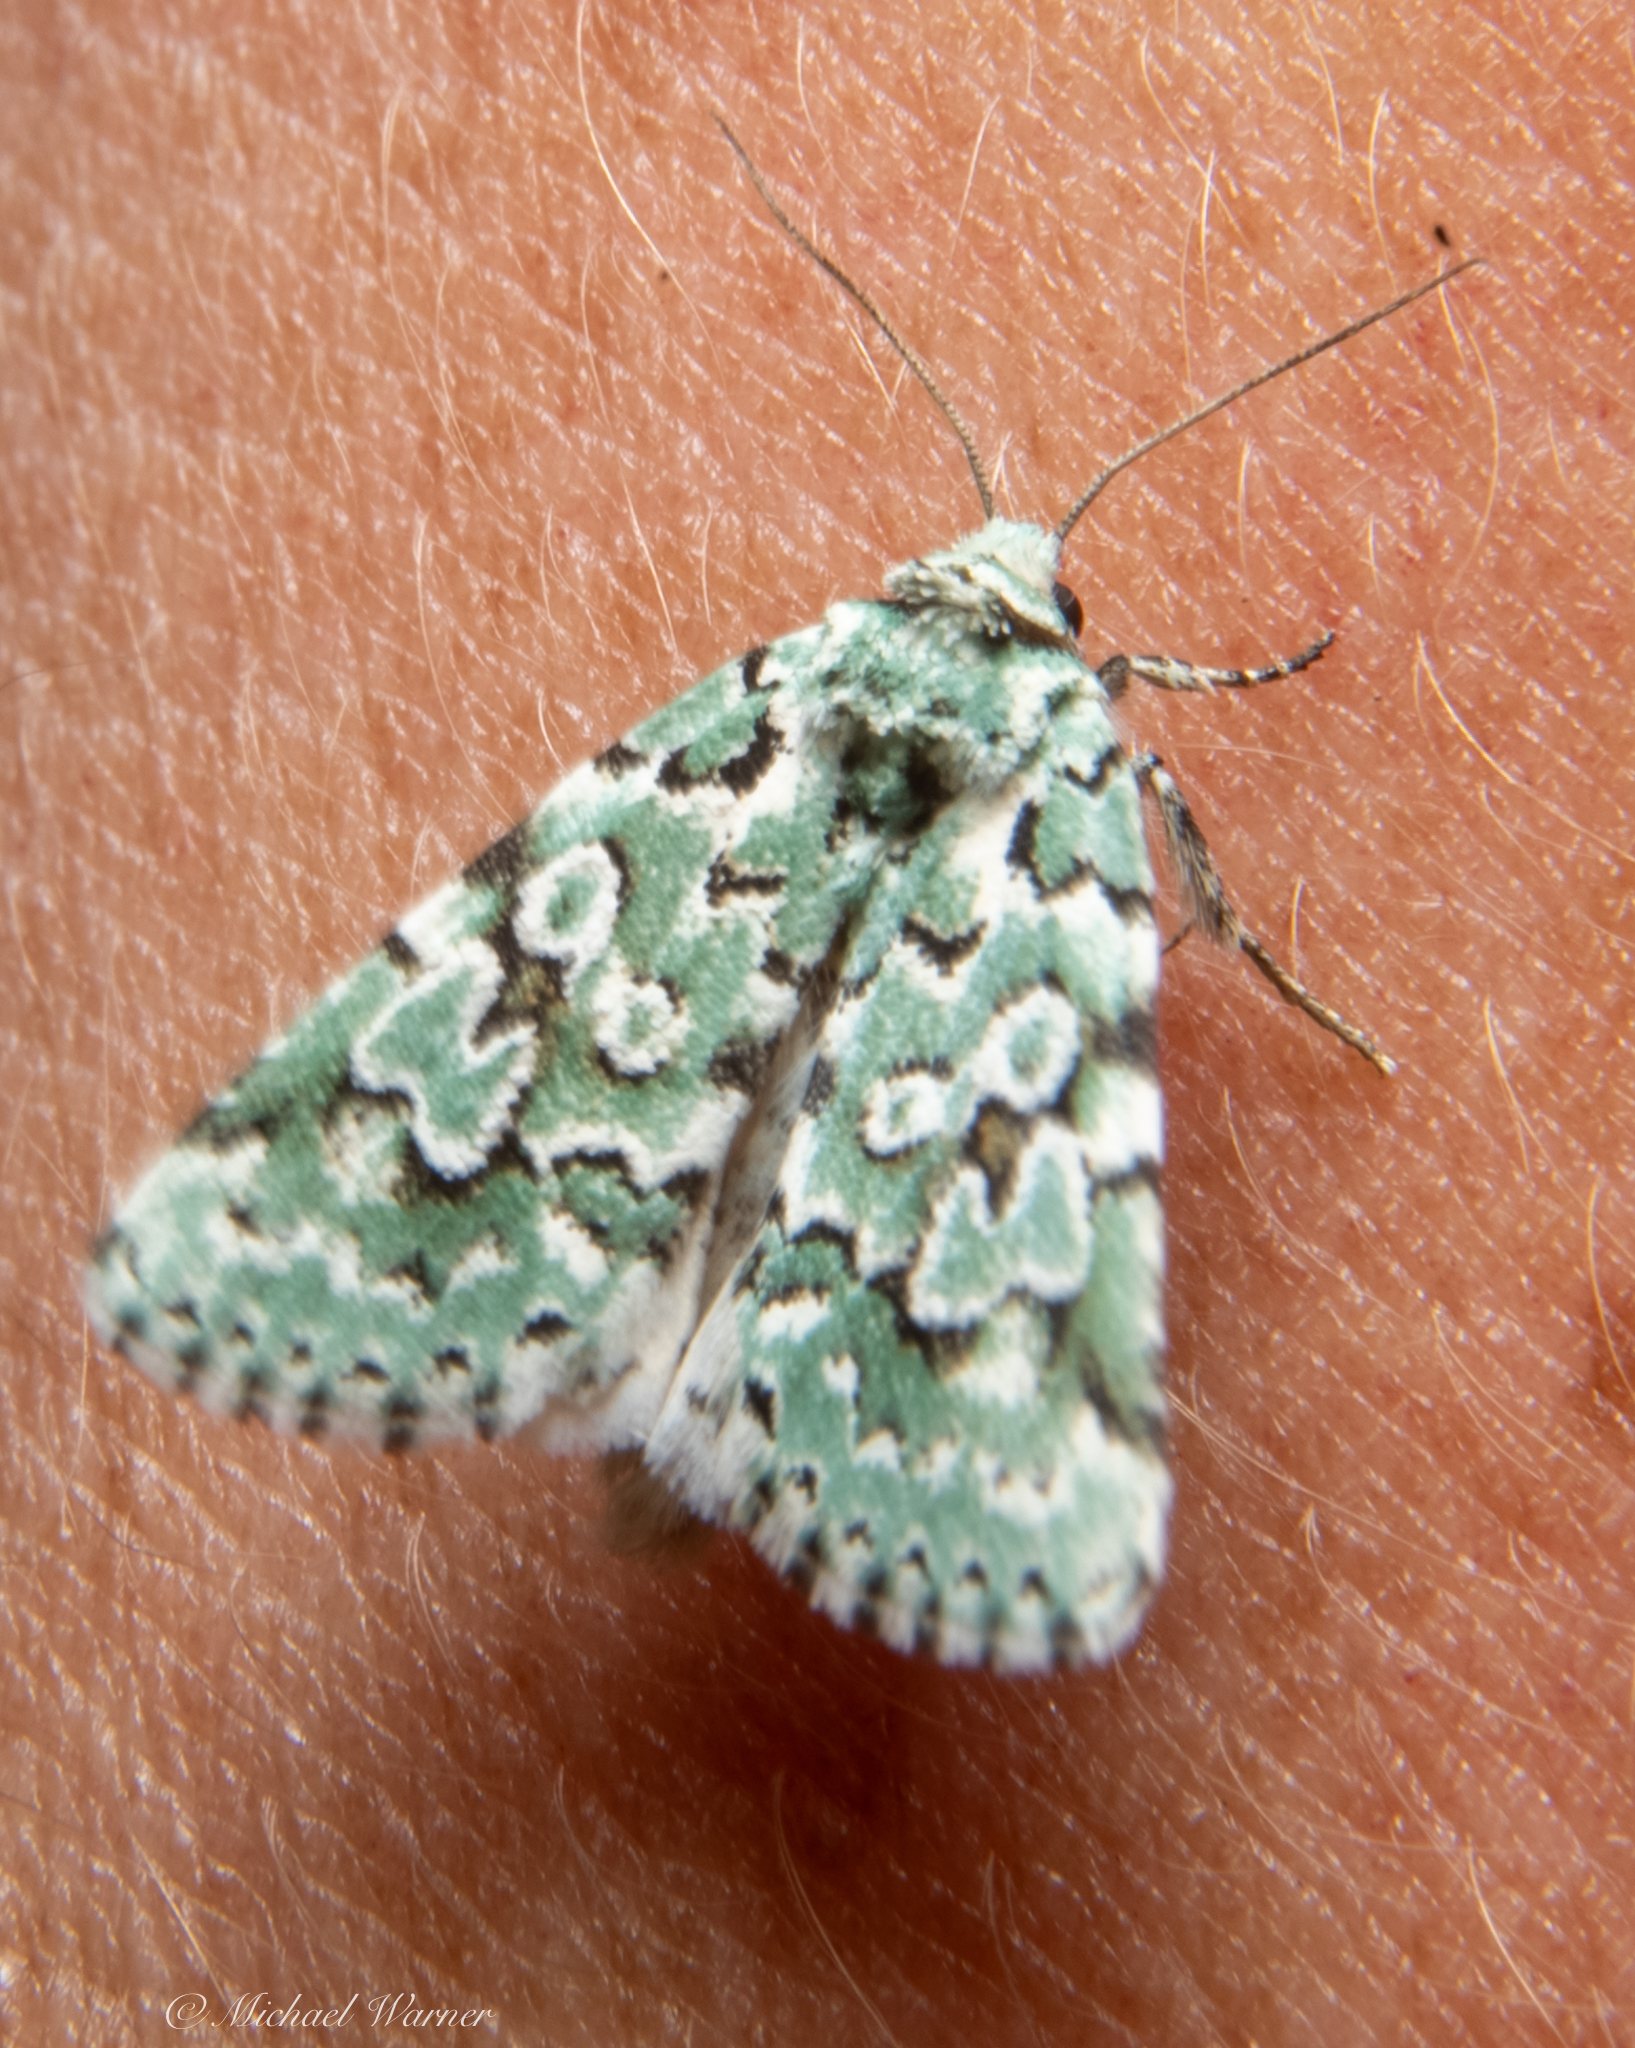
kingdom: Animalia
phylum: Arthropoda
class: Insecta
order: Lepidoptera
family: Noctuidae
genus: Bryolymnia
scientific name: Bryolymnia viridata
